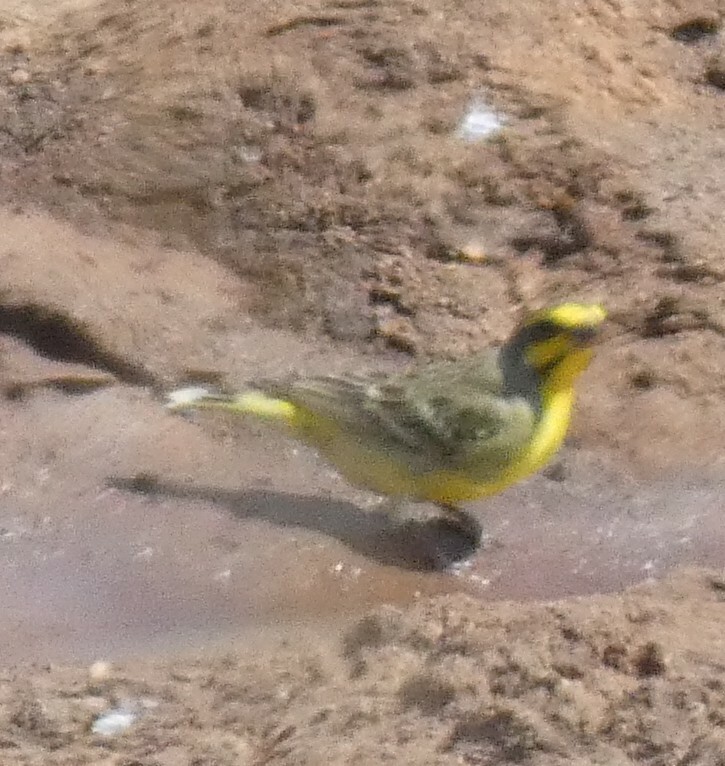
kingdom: Animalia
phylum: Chordata
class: Aves
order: Passeriformes
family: Fringillidae
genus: Crithagra
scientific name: Crithagra mozambica
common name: Yellow-fronted canary
